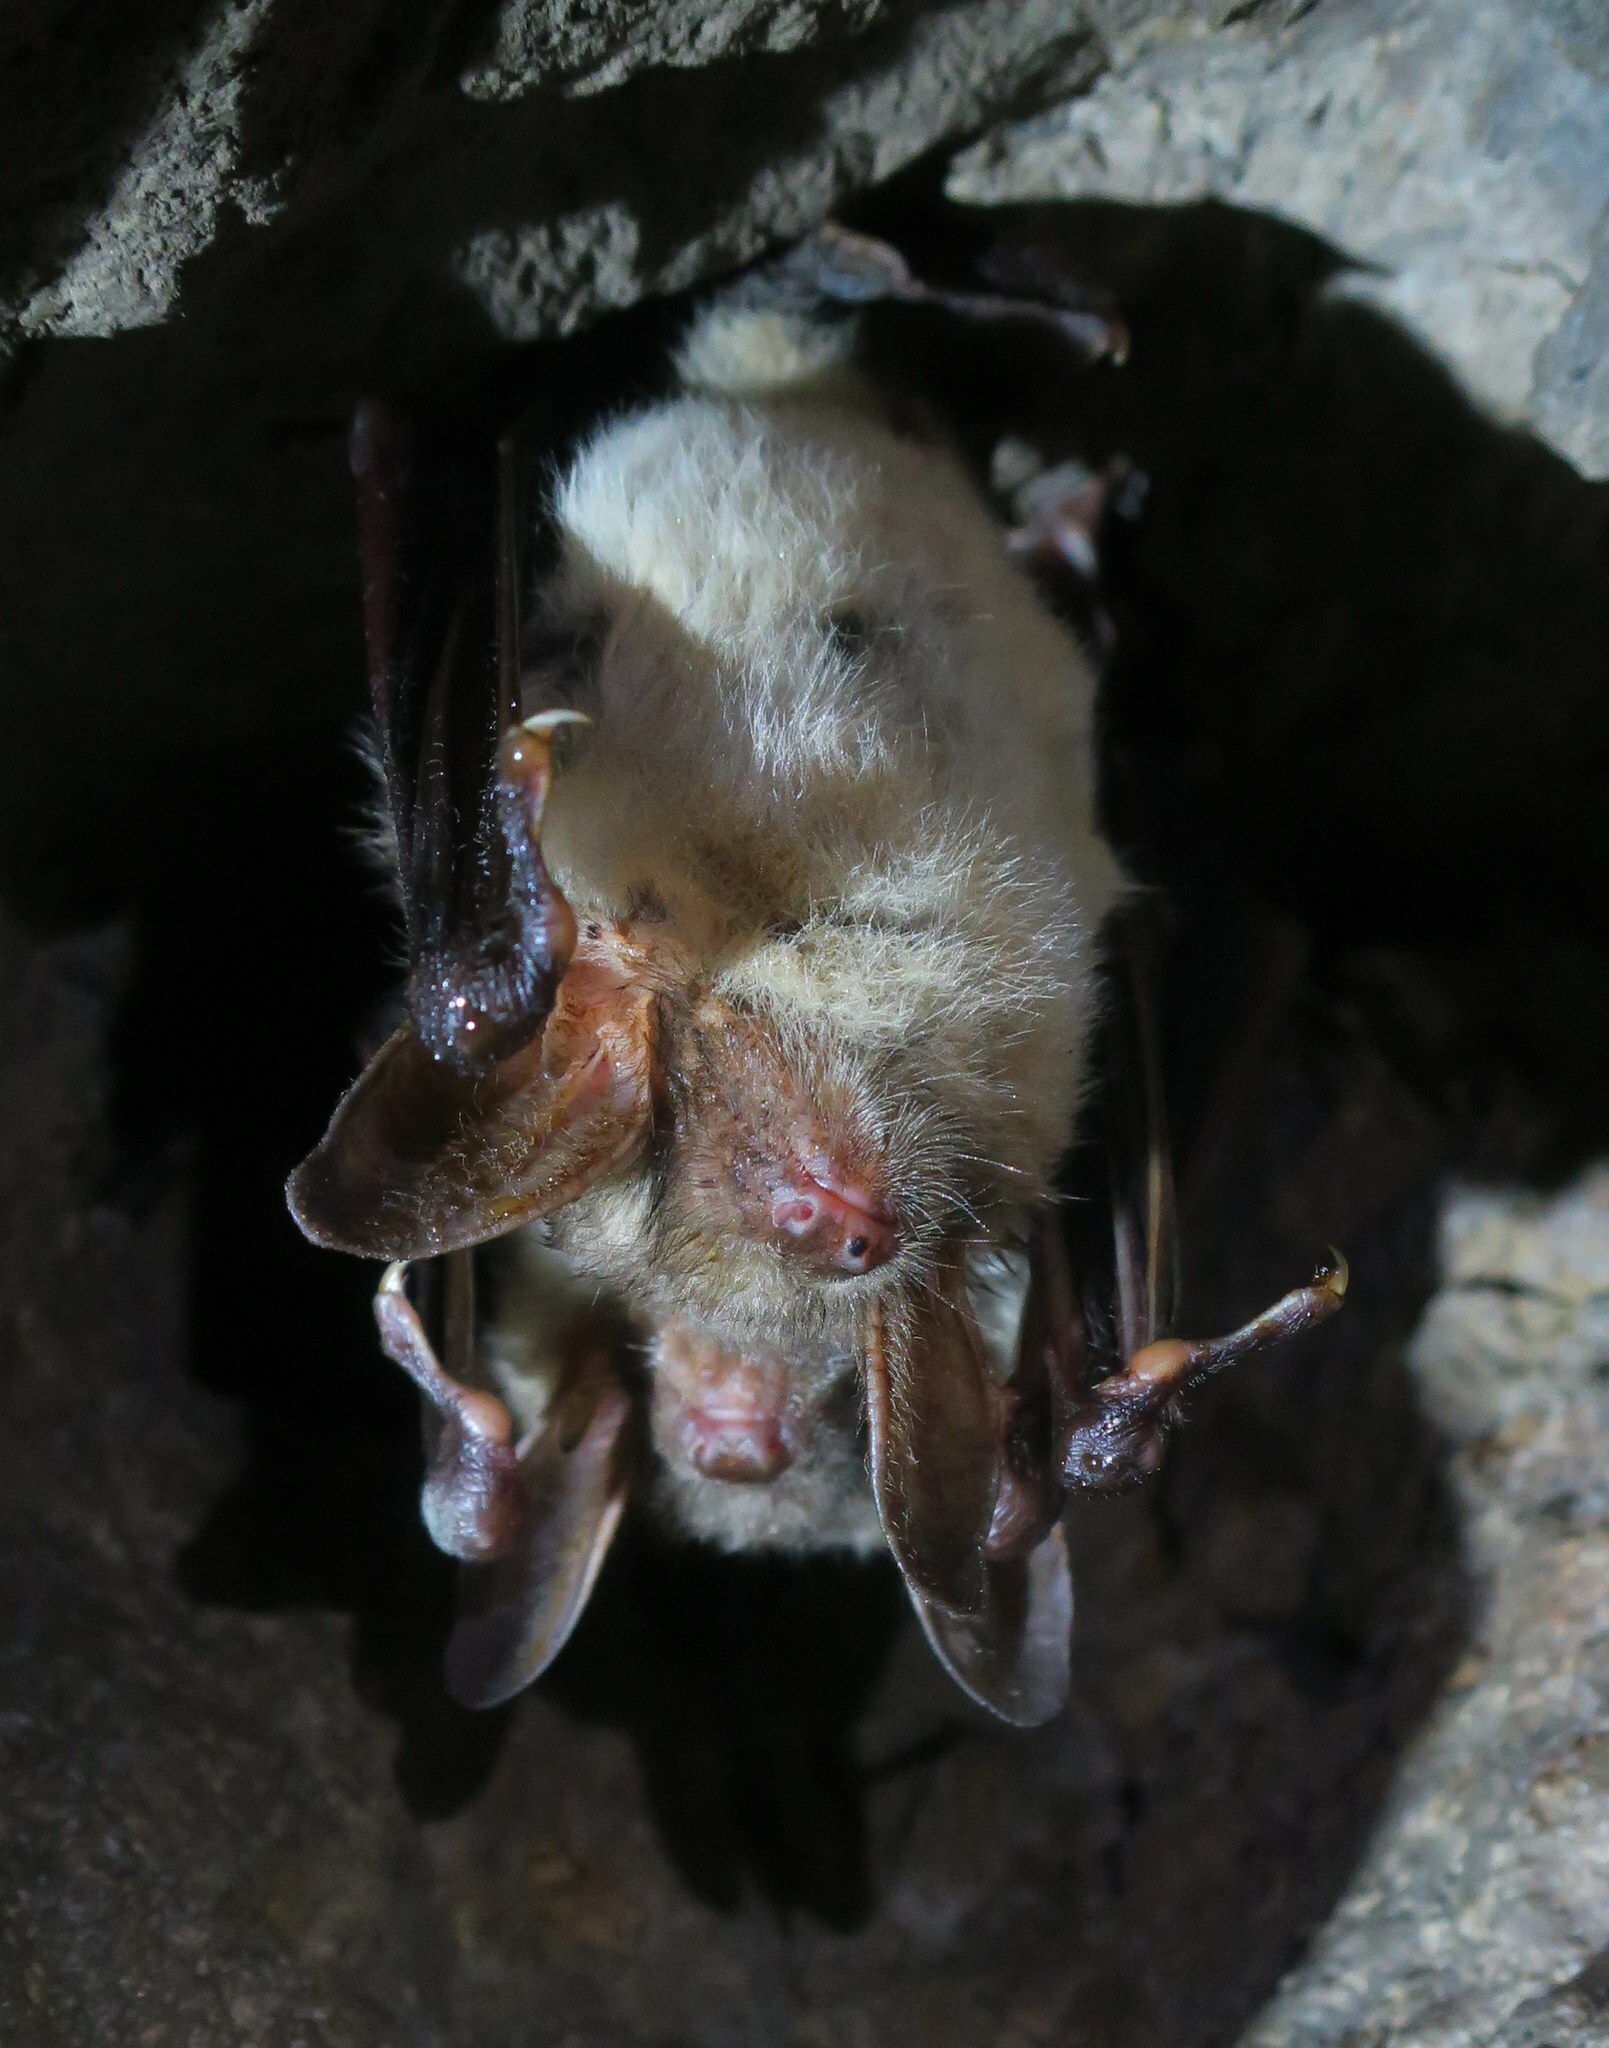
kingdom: Animalia
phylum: Chordata
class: Mammalia
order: Chiroptera
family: Vespertilionidae
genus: Myotis
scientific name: Myotis myotis
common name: Greater mouse-eared bat
